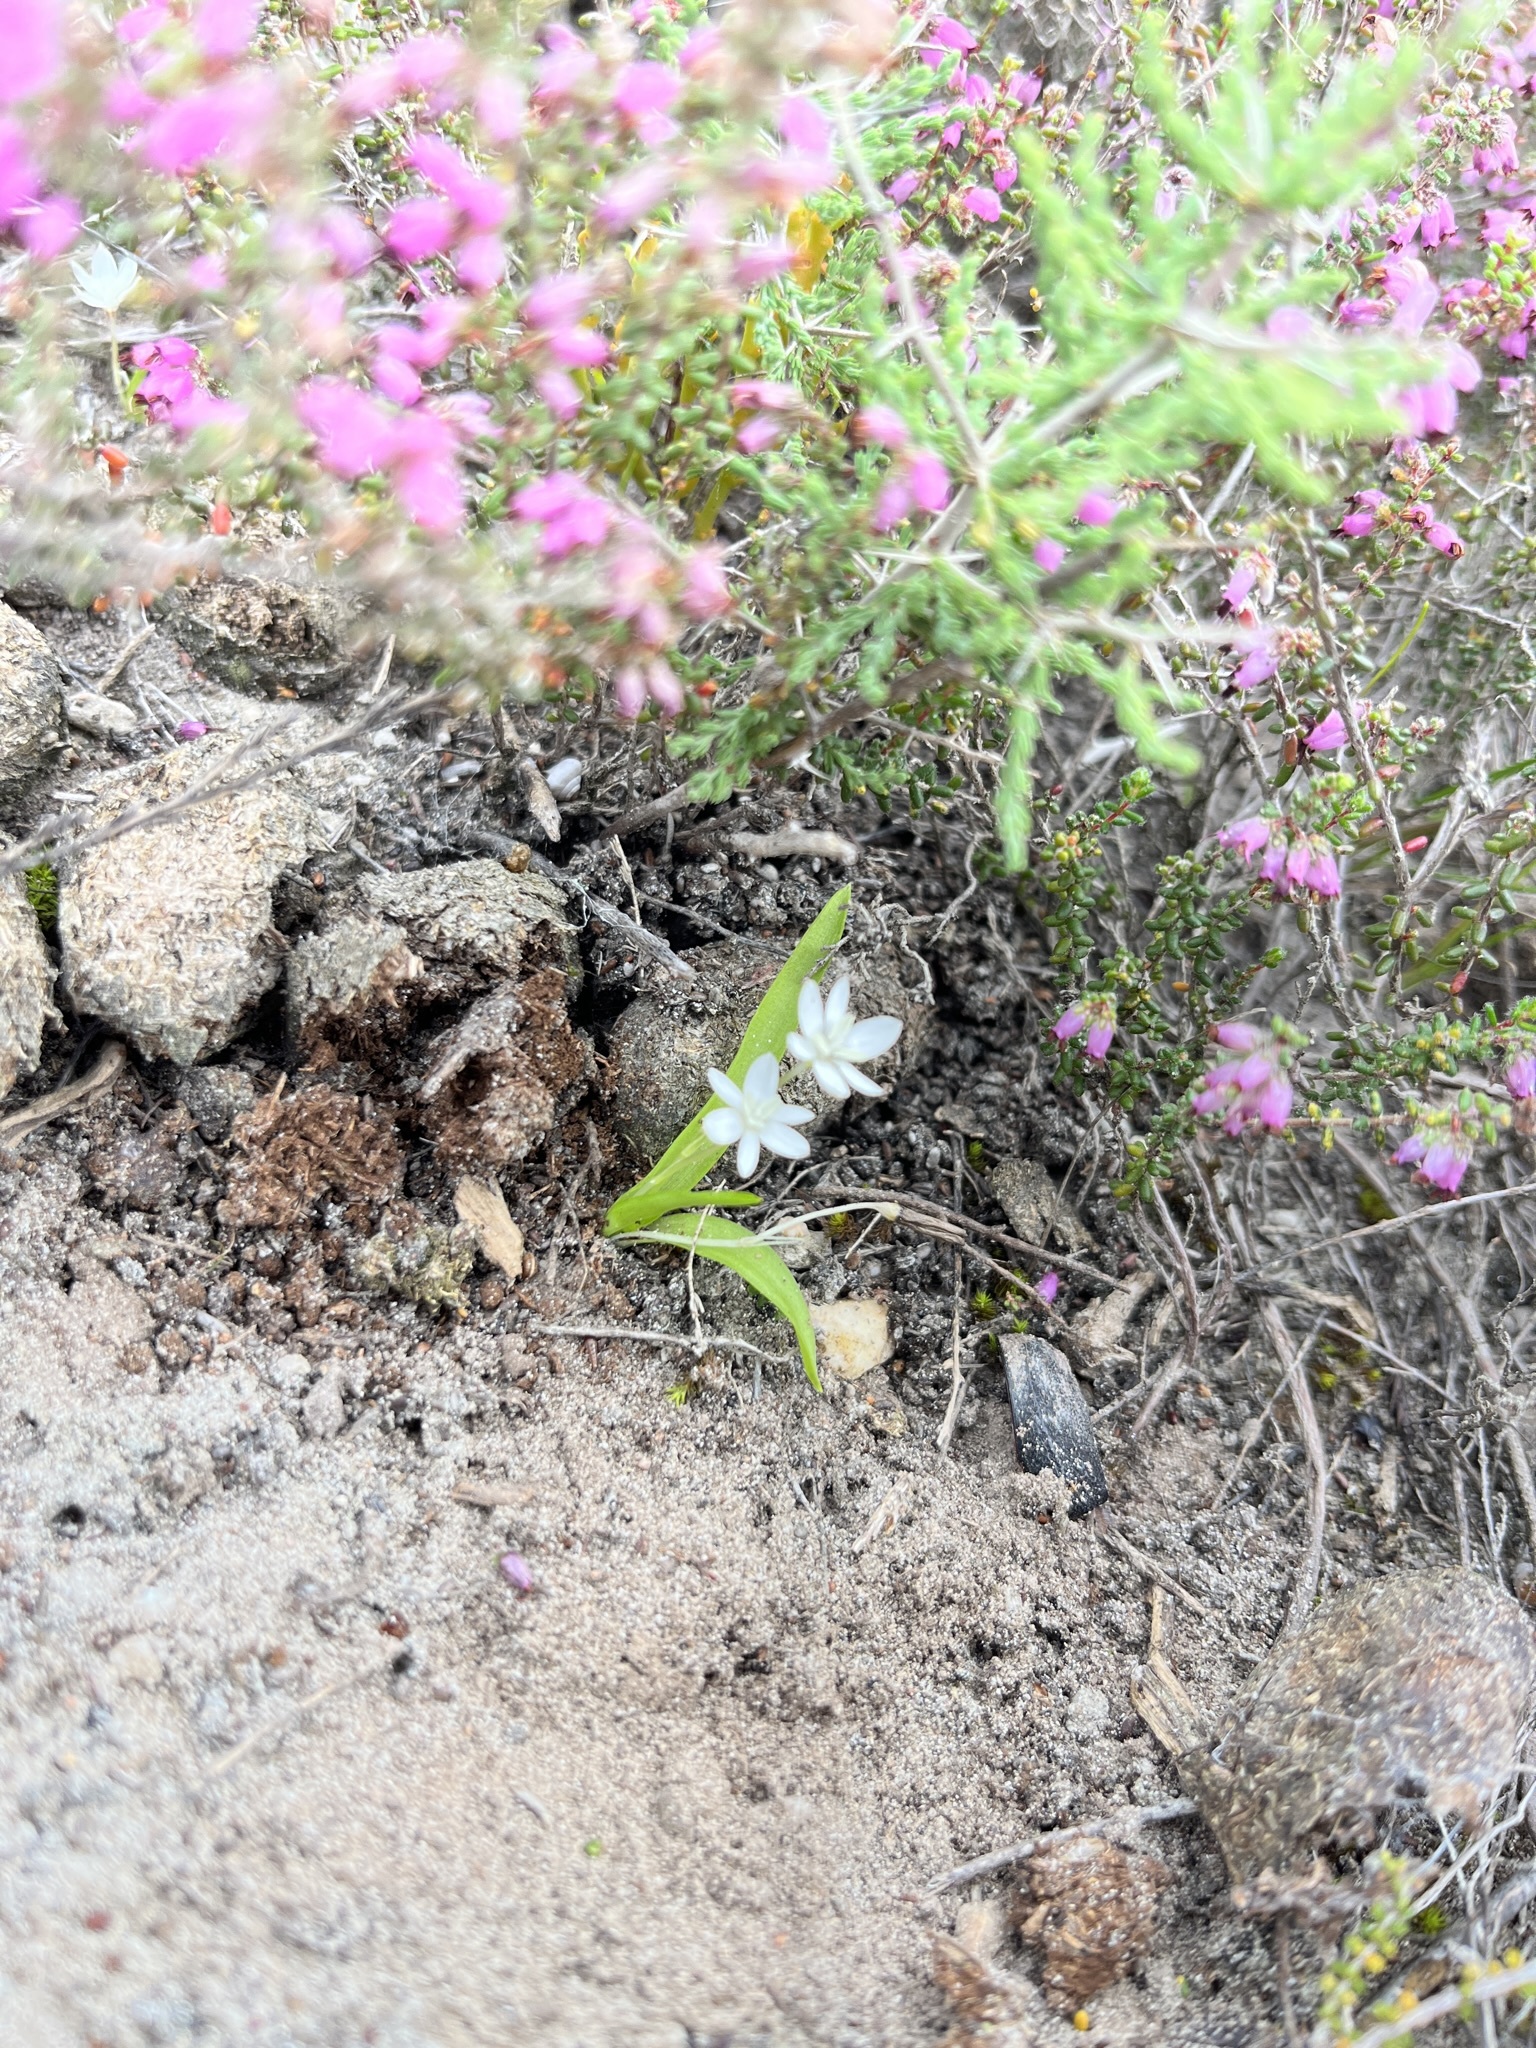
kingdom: Plantae
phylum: Tracheophyta
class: Liliopsida
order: Asparagales
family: Hypoxidaceae
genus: Pauridia
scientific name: Pauridia minuta
